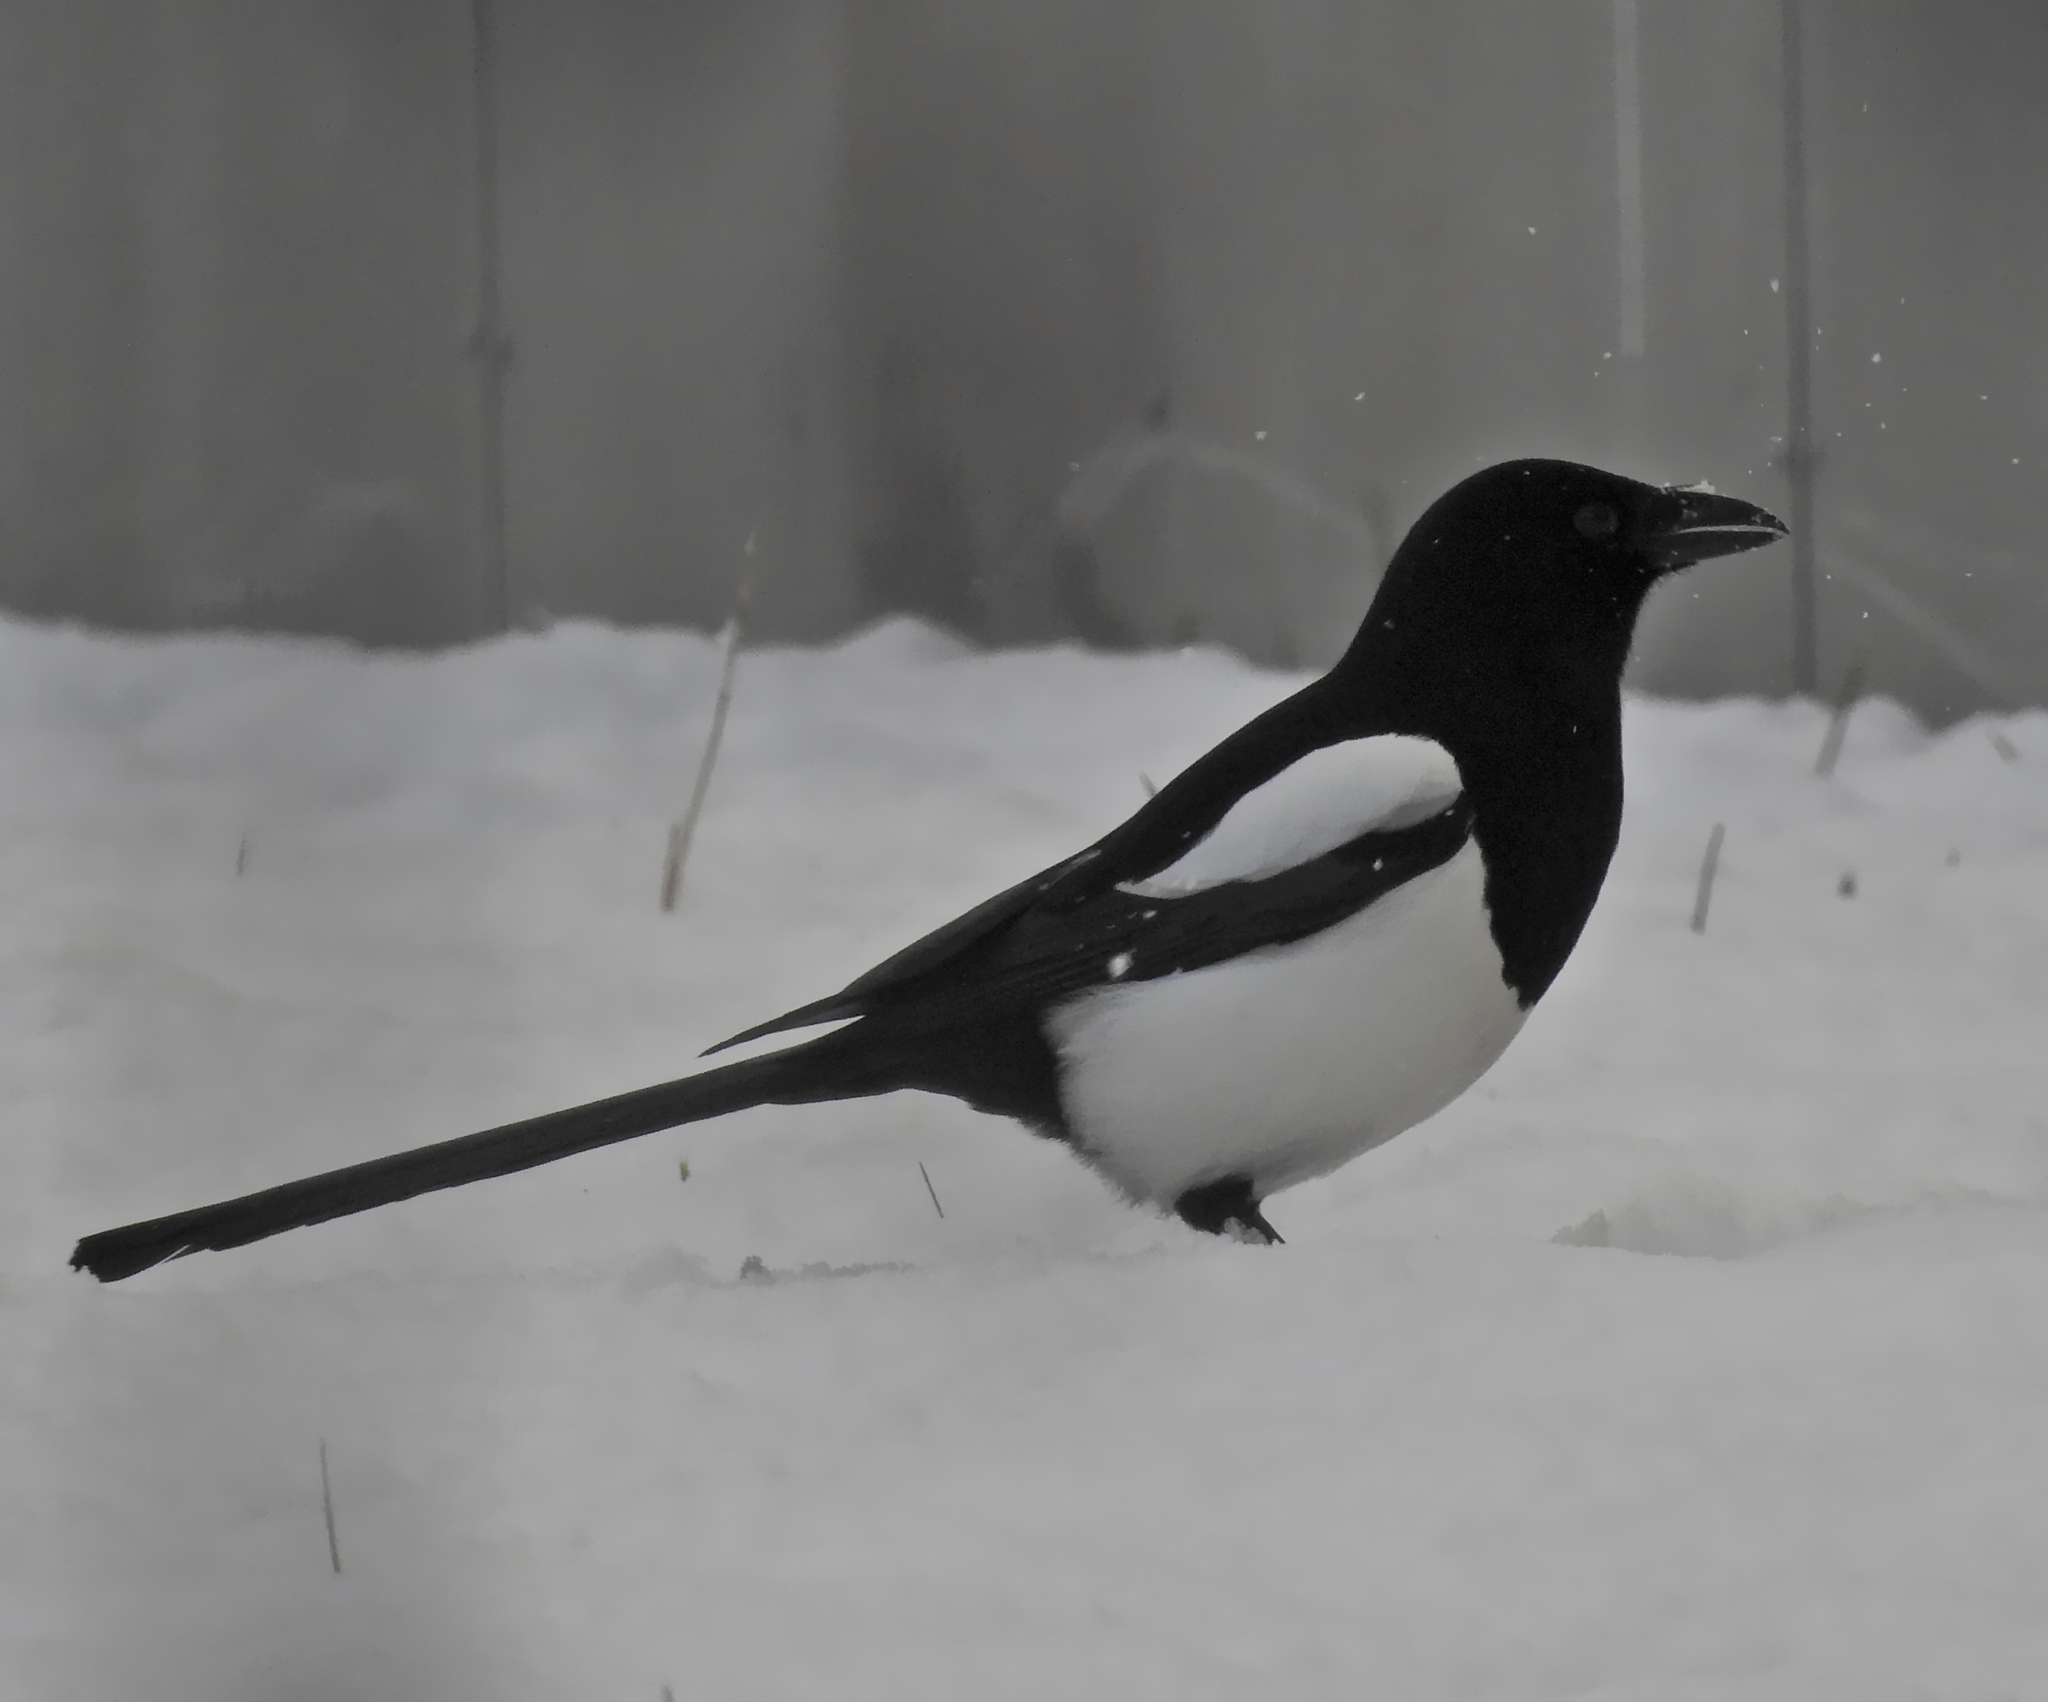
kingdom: Animalia
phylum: Chordata
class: Aves
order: Passeriformes
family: Corvidae
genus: Pica
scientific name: Pica pica
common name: Eurasian magpie
